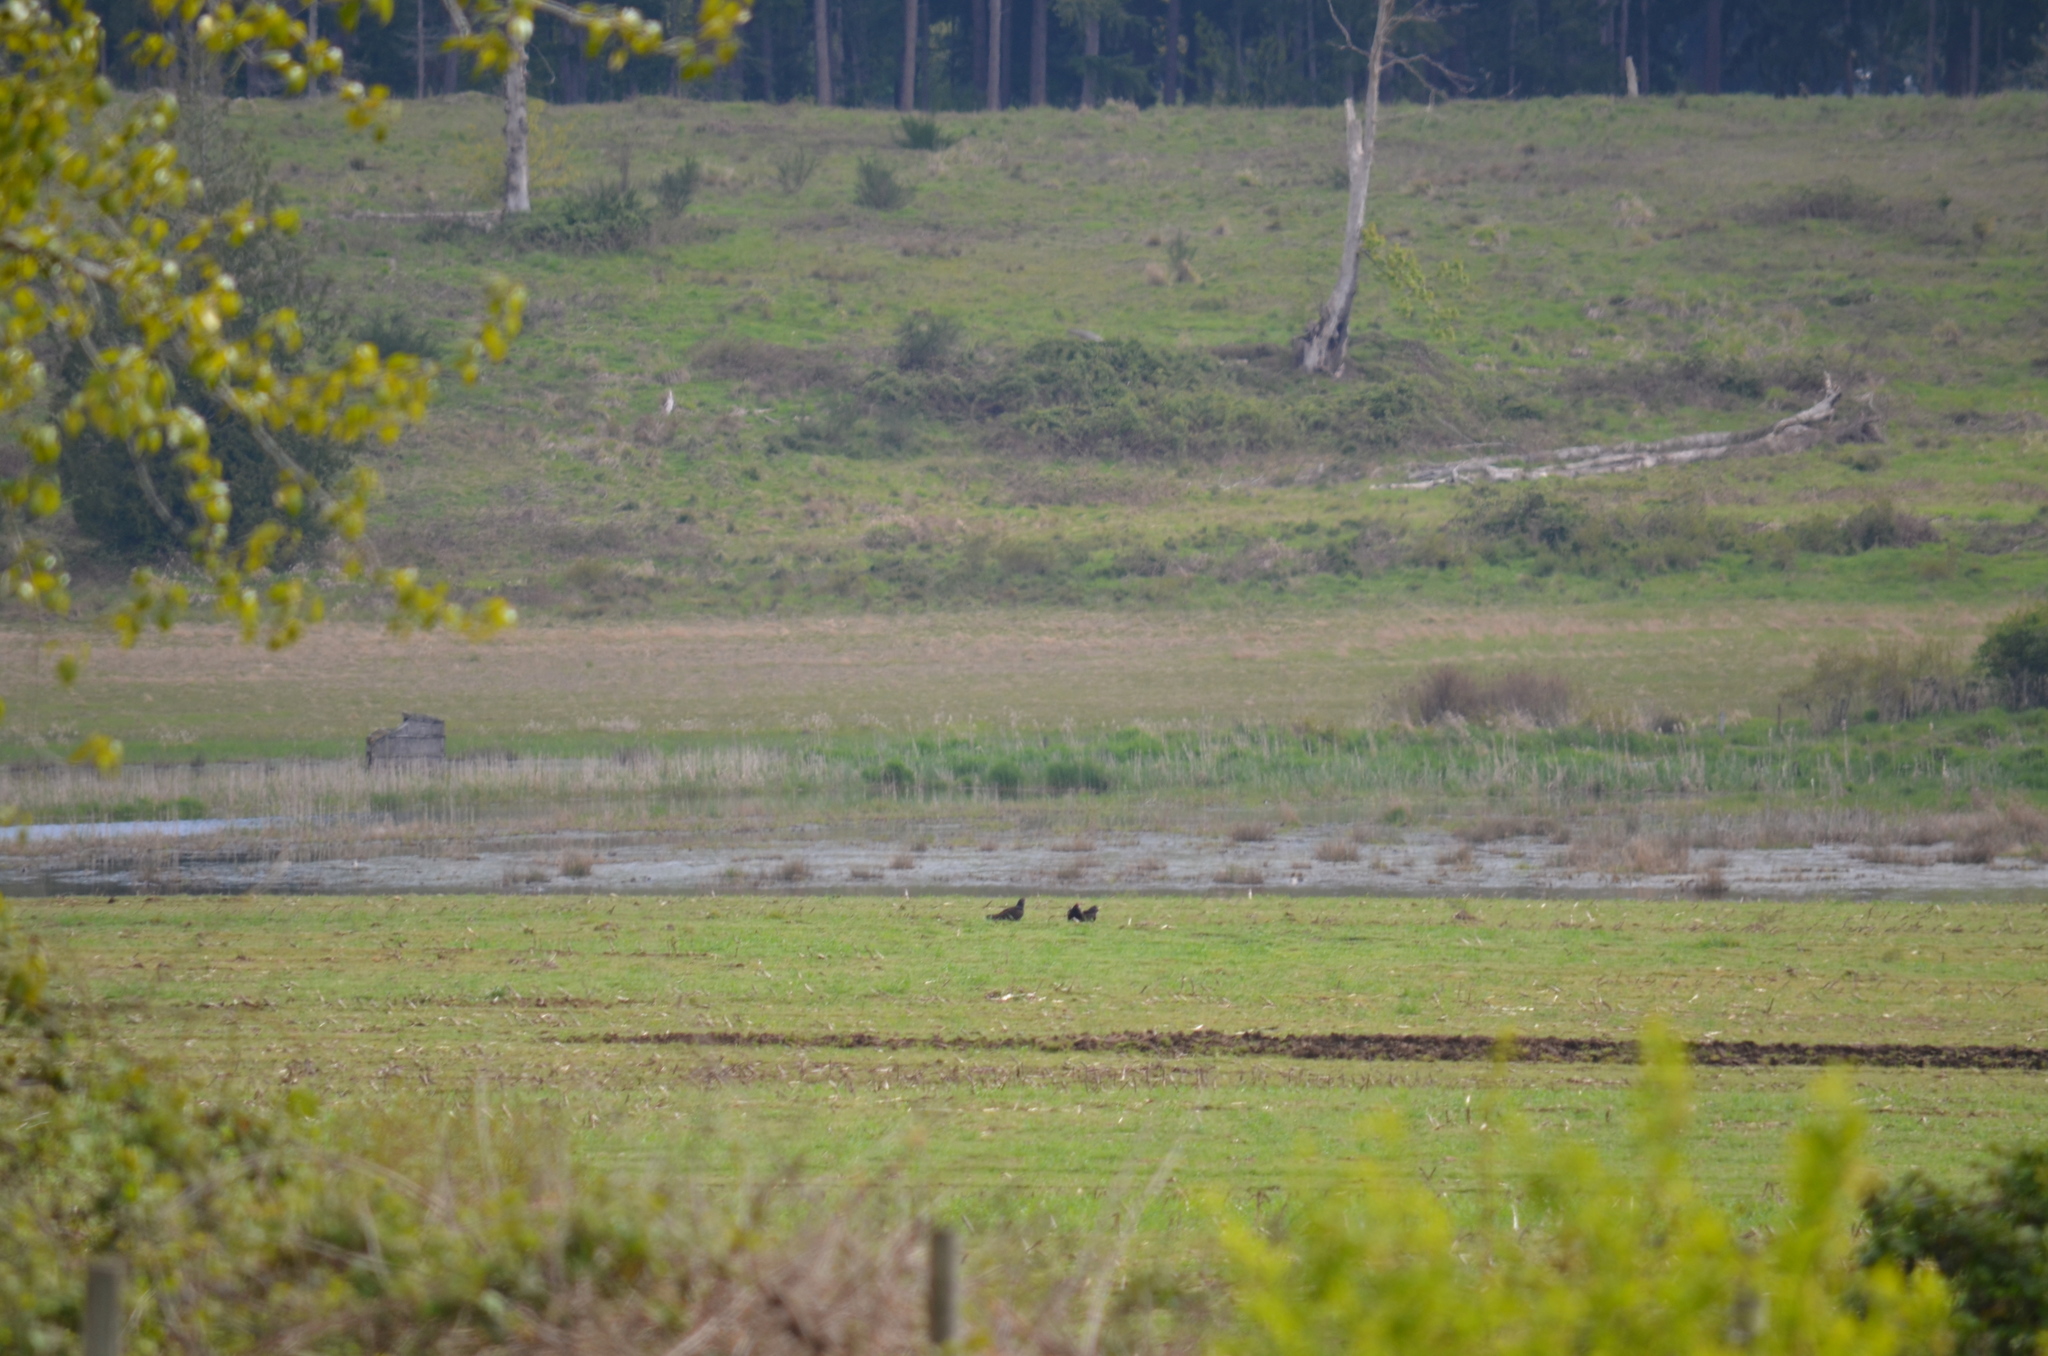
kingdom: Animalia
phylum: Chordata
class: Aves
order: Accipitriformes
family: Cathartidae
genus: Cathartes
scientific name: Cathartes aura
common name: Turkey vulture
